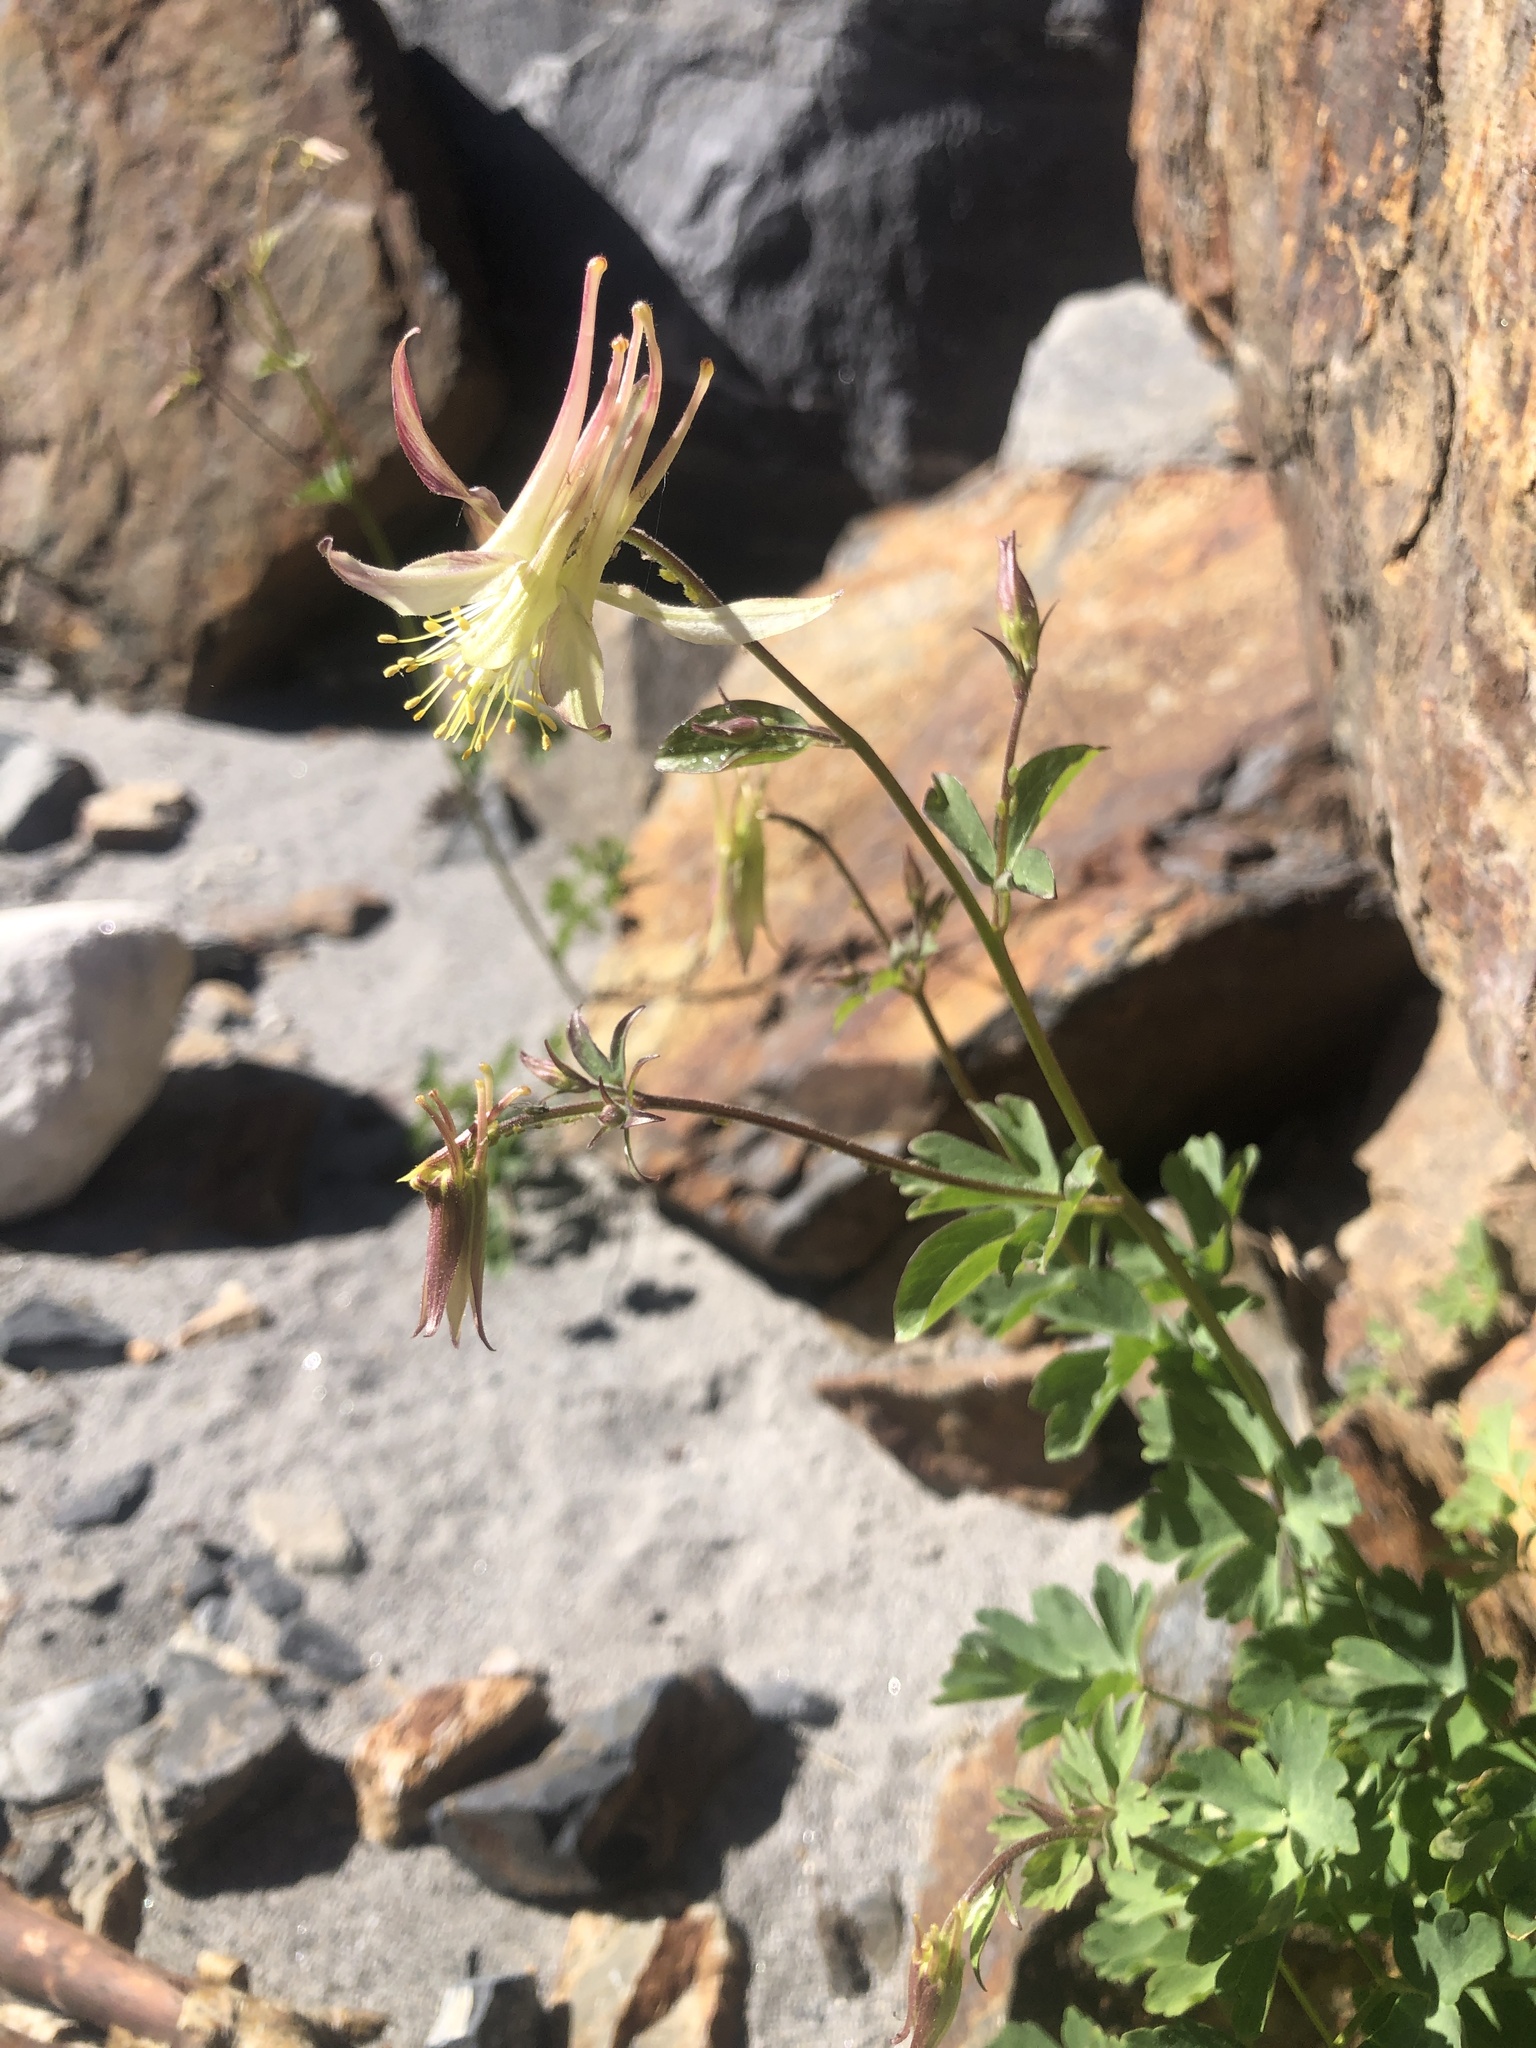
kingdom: Plantae
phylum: Tracheophyta
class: Magnoliopsida
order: Ranunculales
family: Ranunculaceae
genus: Aquilegia
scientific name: Aquilegia pubescens
